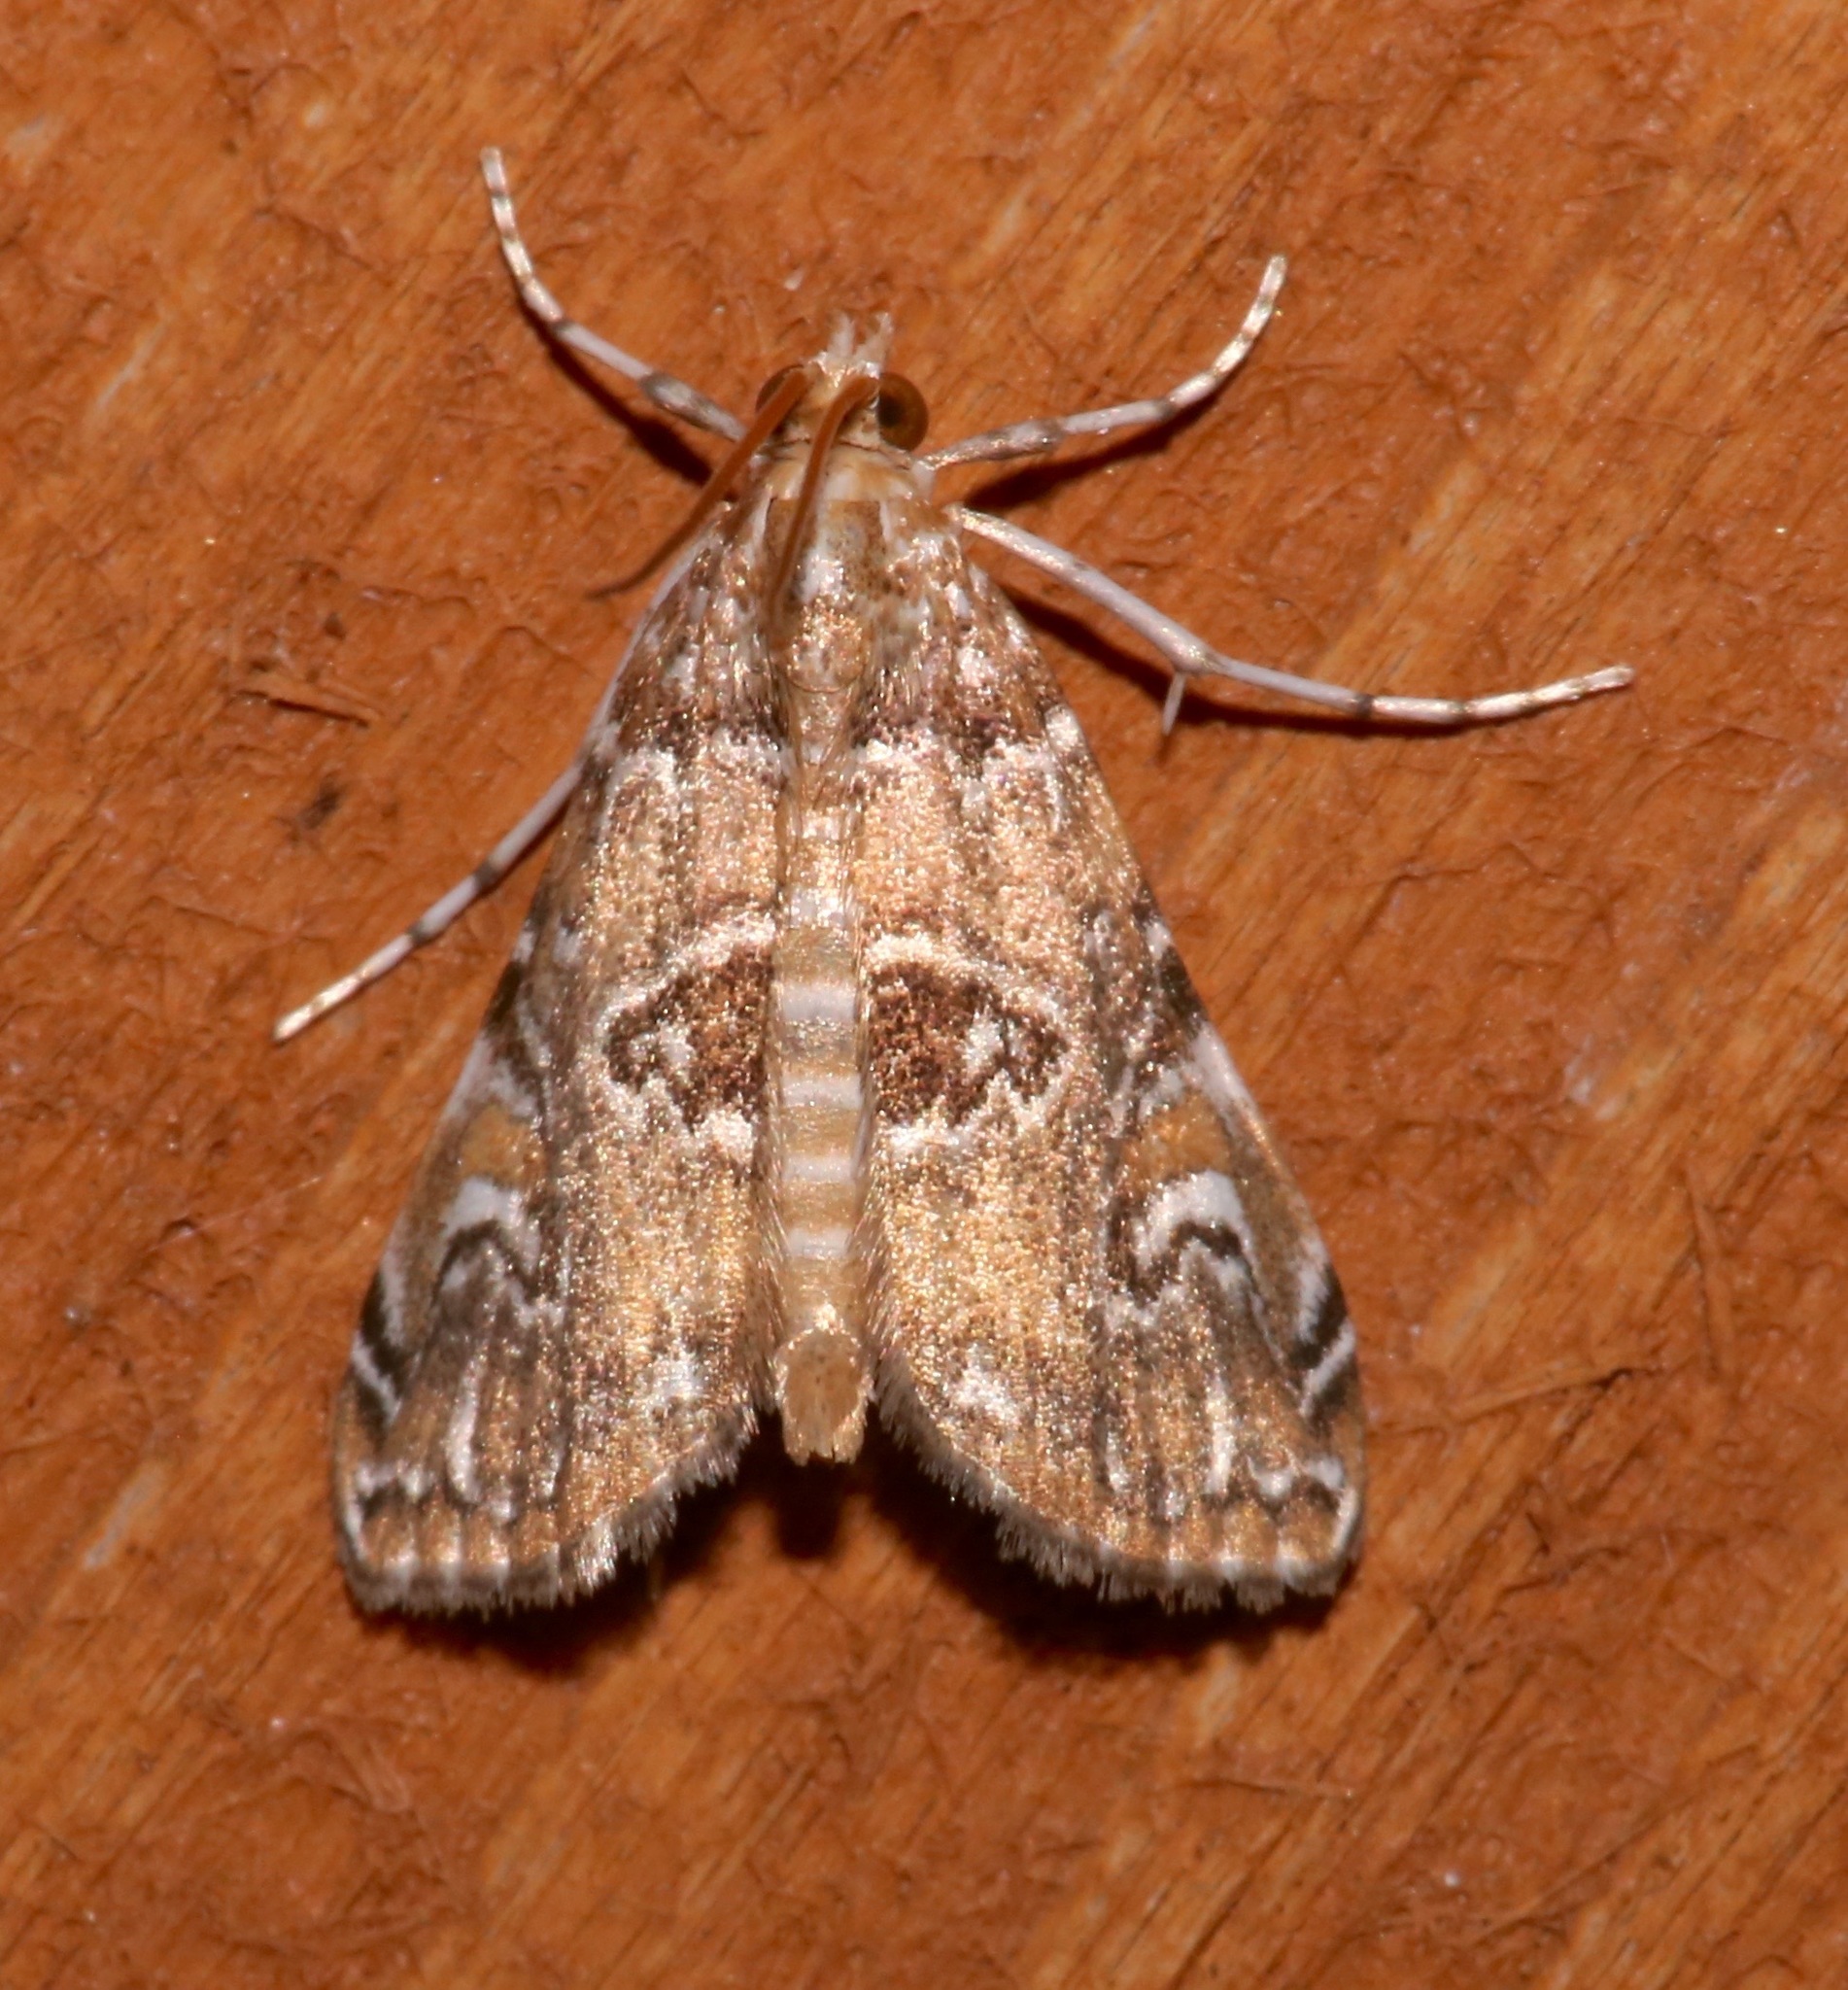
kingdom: Animalia
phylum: Arthropoda
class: Insecta
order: Lepidoptera
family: Crambidae
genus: Elophila
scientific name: Elophila gyralis
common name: Waterlily borer moth
